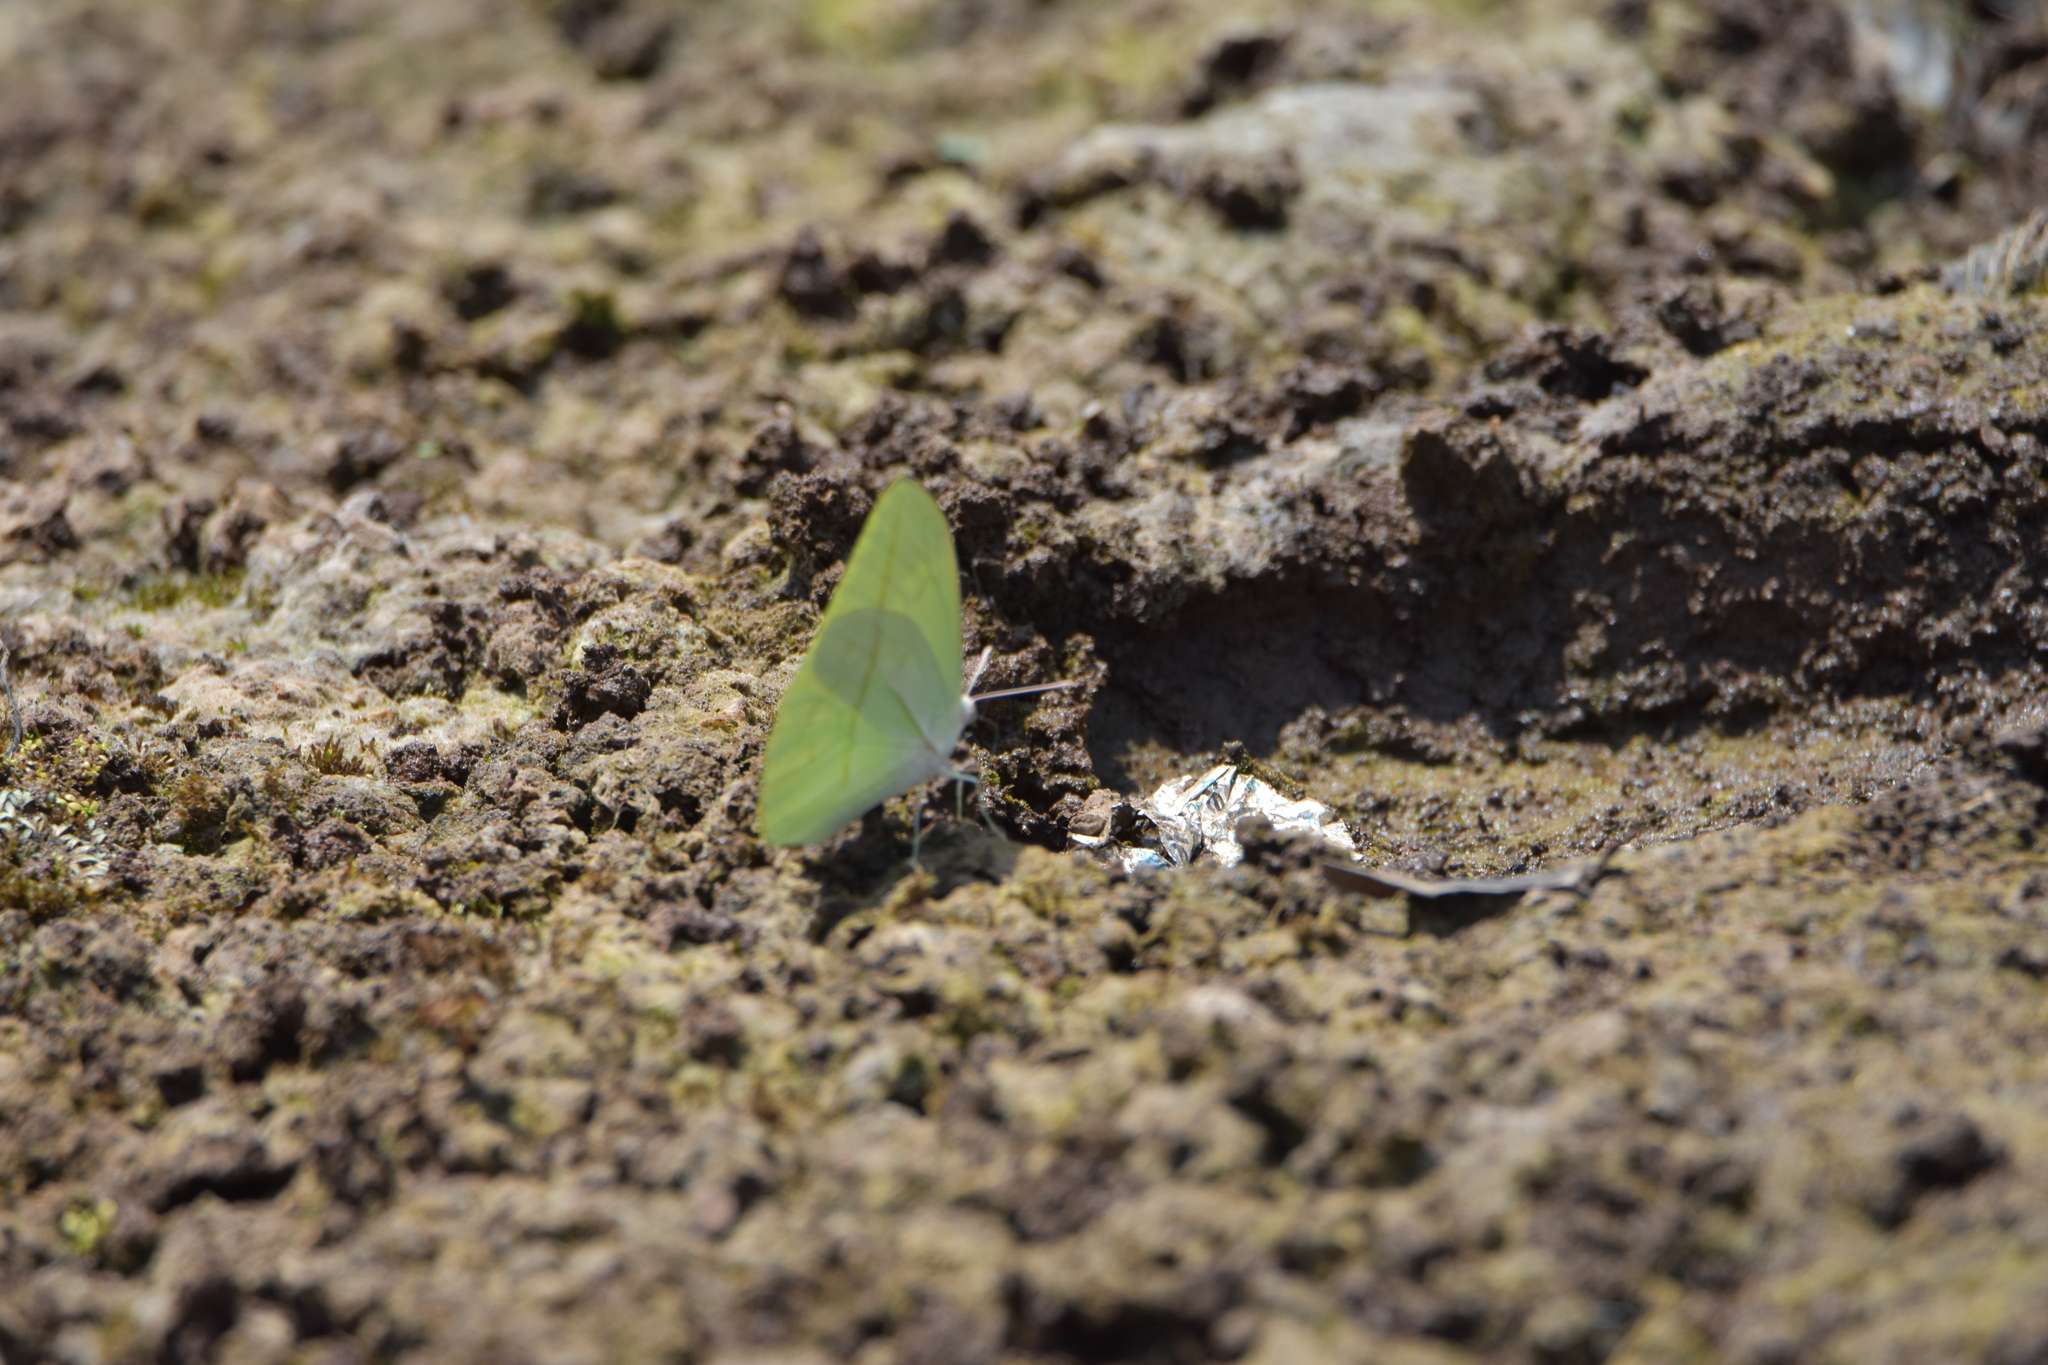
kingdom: Animalia
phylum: Arthropoda
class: Insecta
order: Lepidoptera
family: Pieridae
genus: Rhabdodryas
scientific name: Rhabdodryas trite
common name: Straight-lined sulphur
